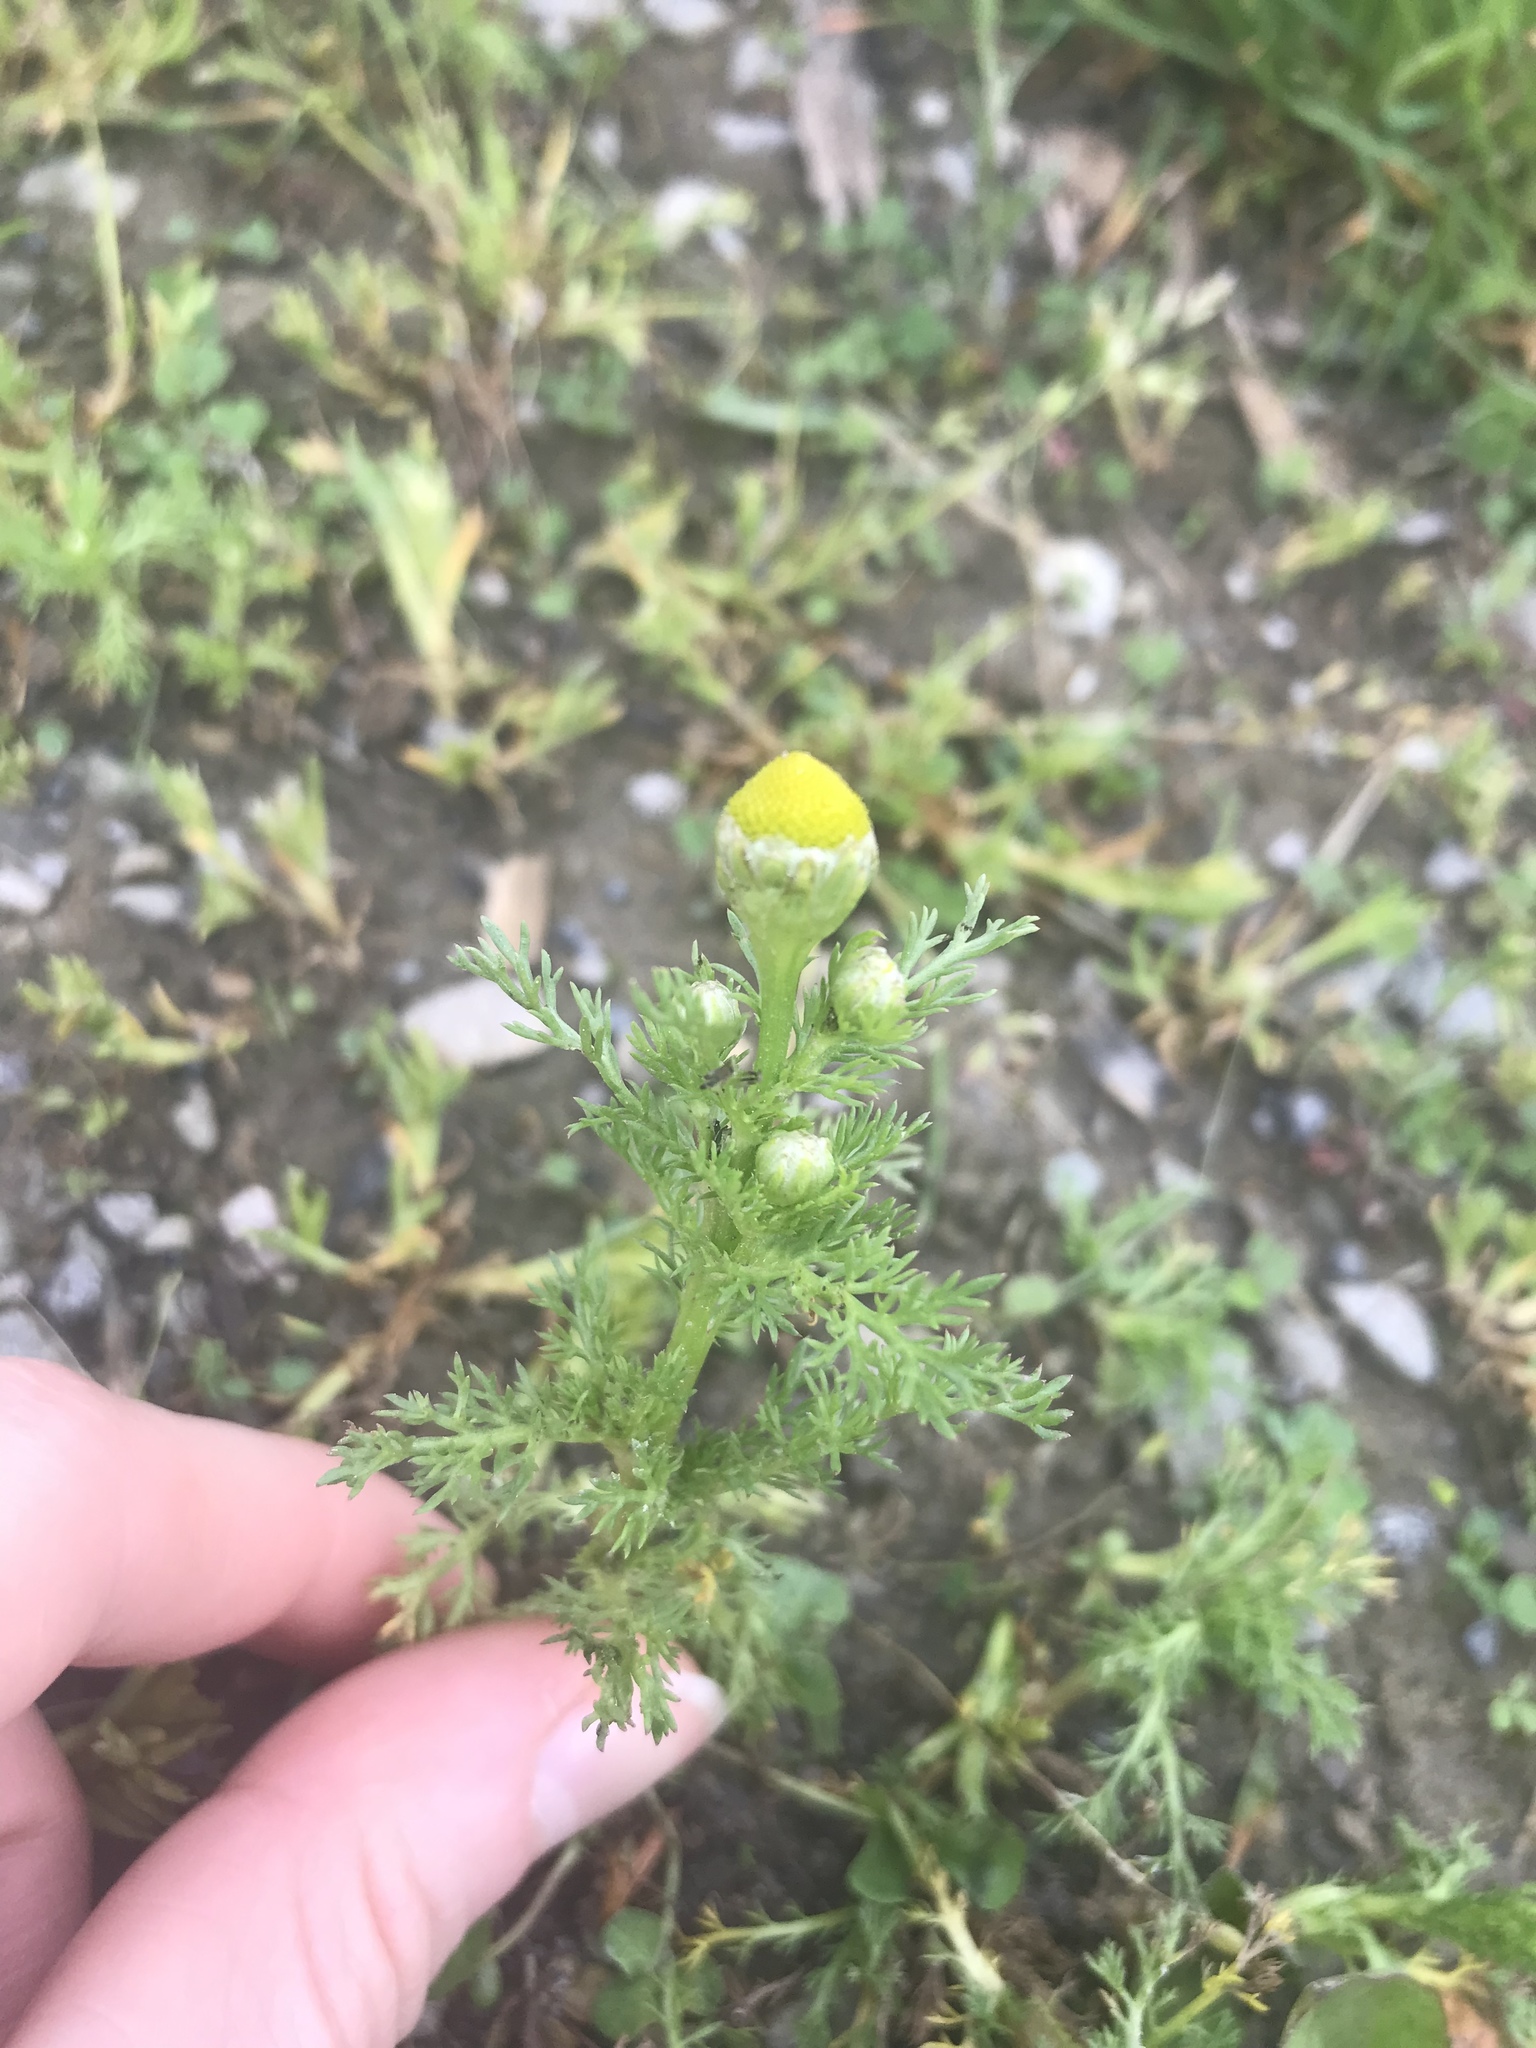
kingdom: Plantae
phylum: Tracheophyta
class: Magnoliopsida
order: Asterales
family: Asteraceae
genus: Matricaria
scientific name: Matricaria discoidea
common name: Disc mayweed
